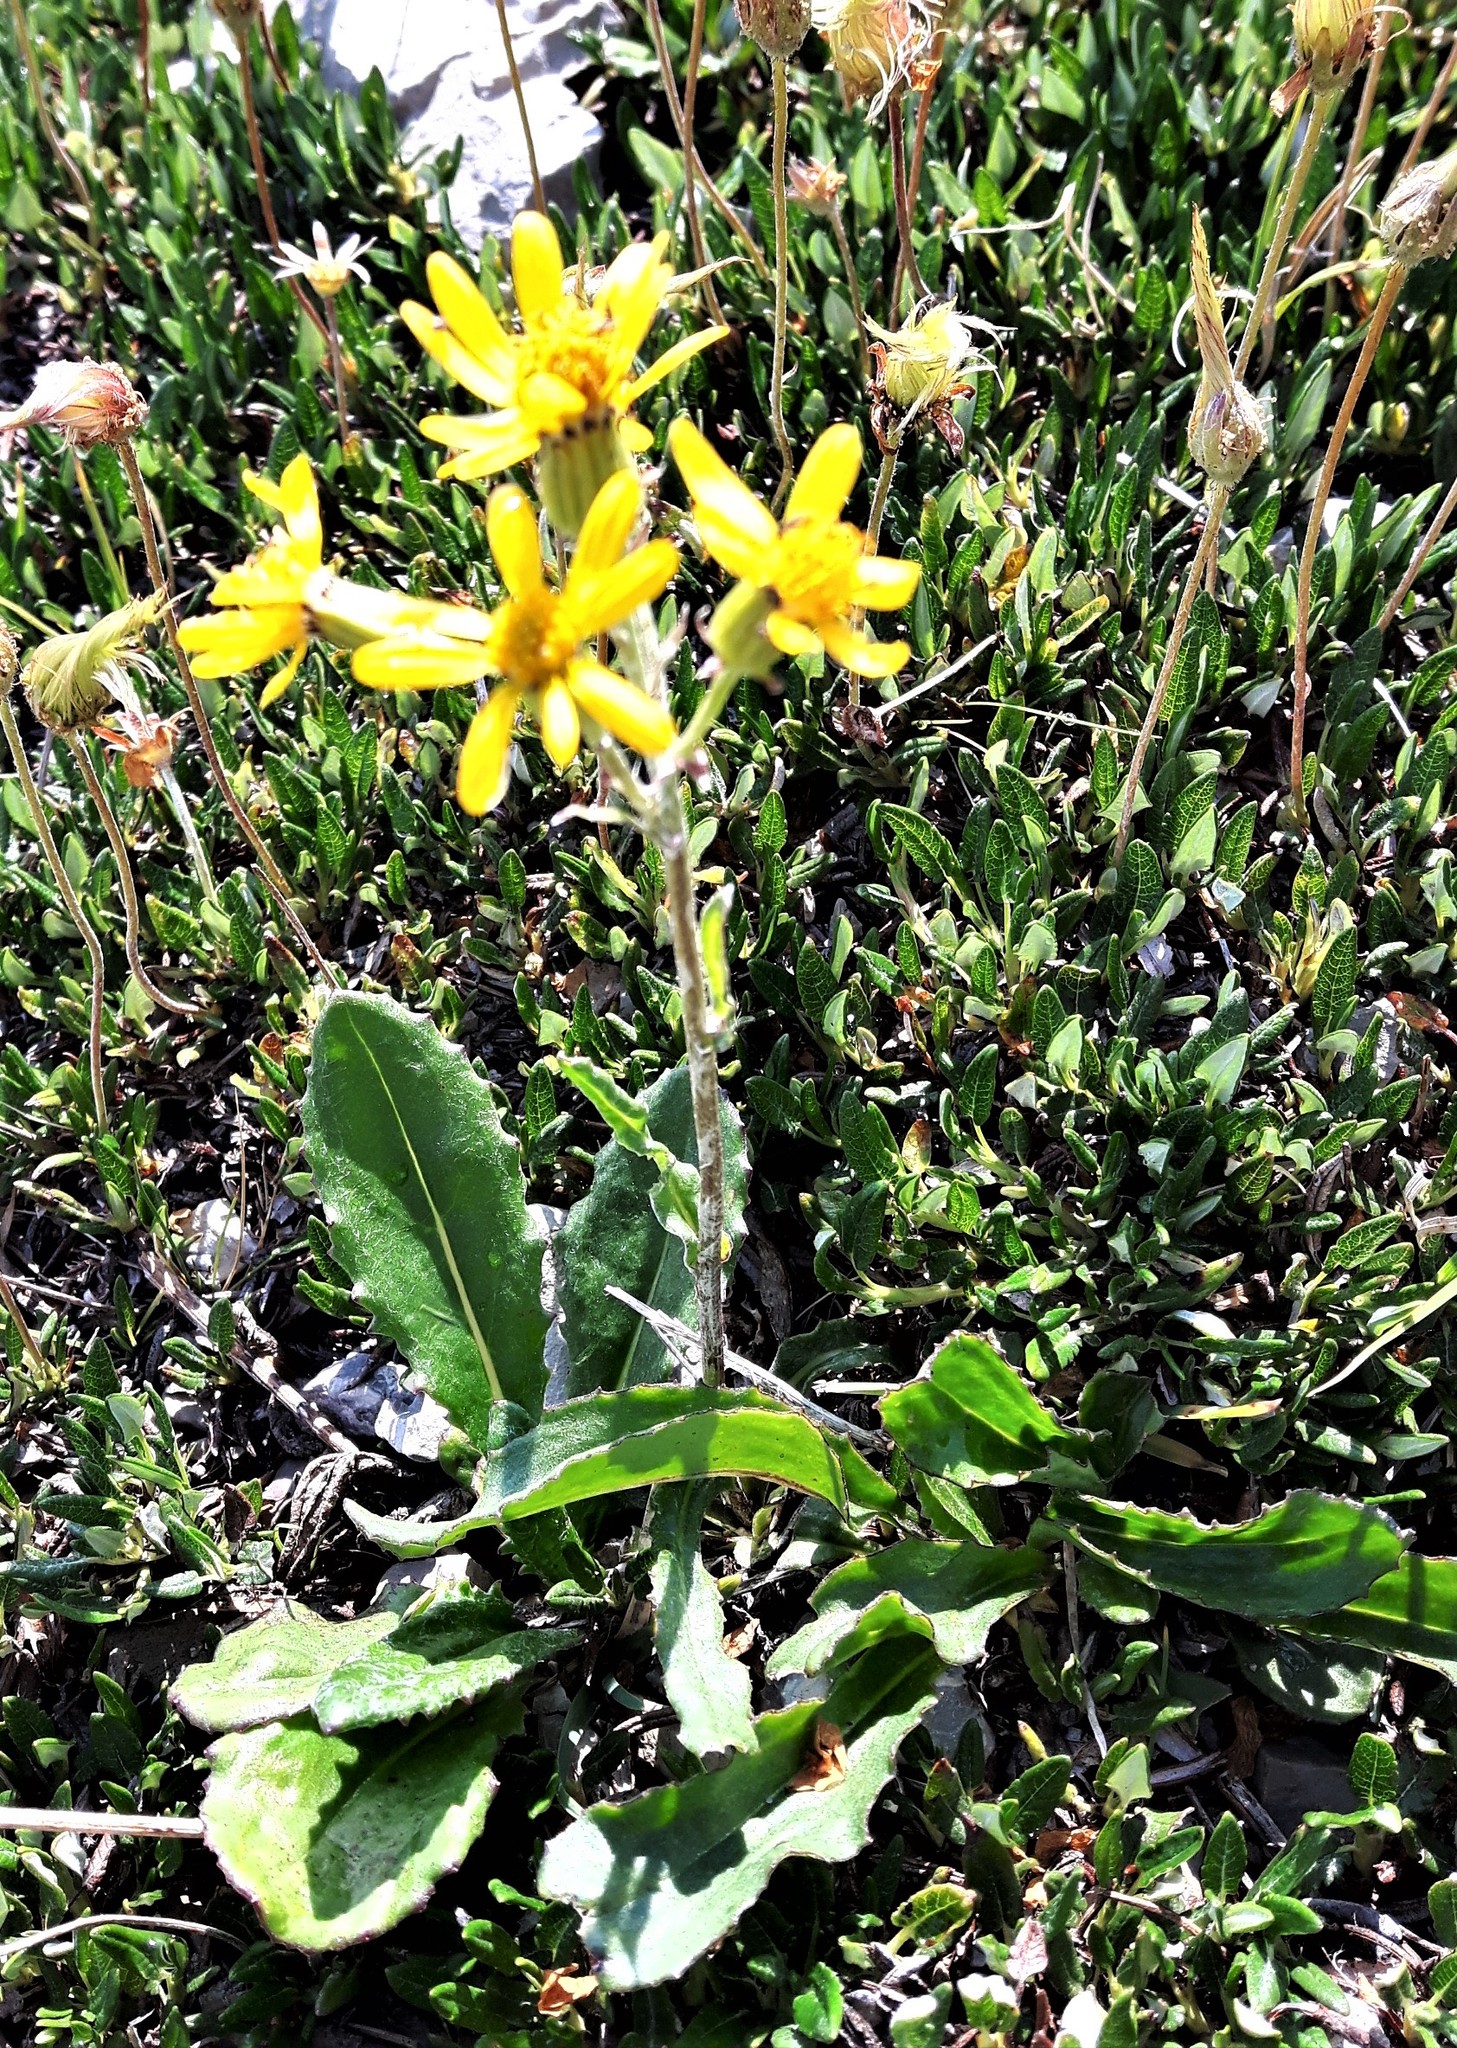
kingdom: Plantae
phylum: Tracheophyta
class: Magnoliopsida
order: Asterales
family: Asteraceae
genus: Senecio
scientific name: Senecio lugens
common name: Black-tip groundsel
